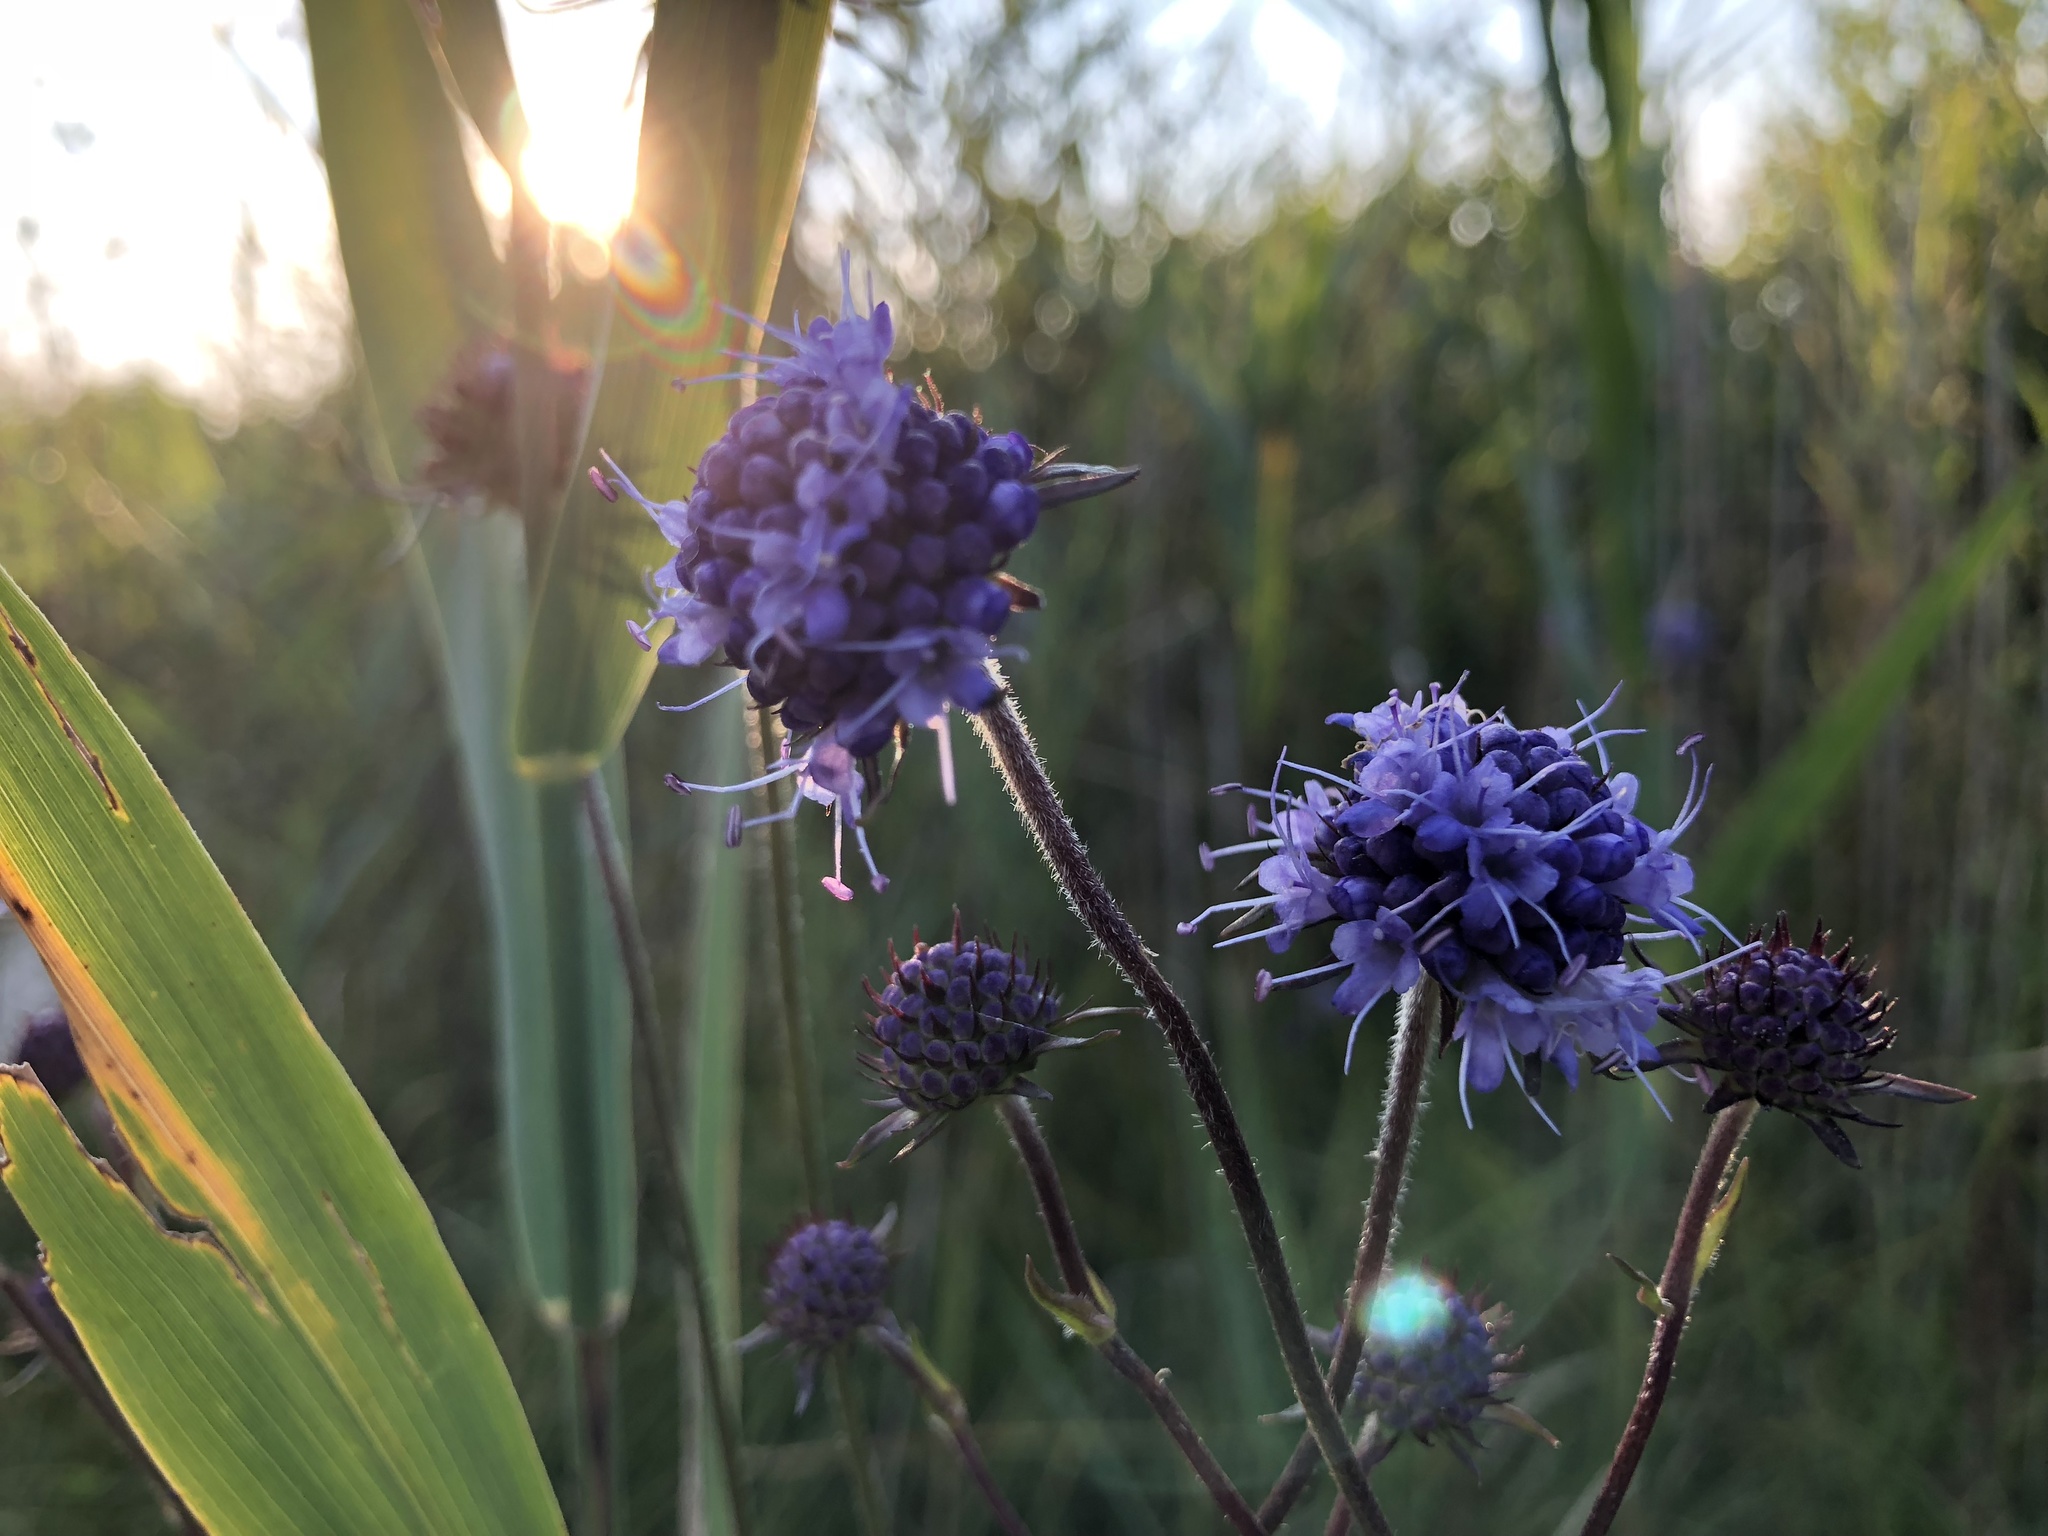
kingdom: Plantae
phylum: Tracheophyta
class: Magnoliopsida
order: Dipsacales
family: Caprifoliaceae
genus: Succisa
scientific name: Succisa pratensis
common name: Devil's-bit
